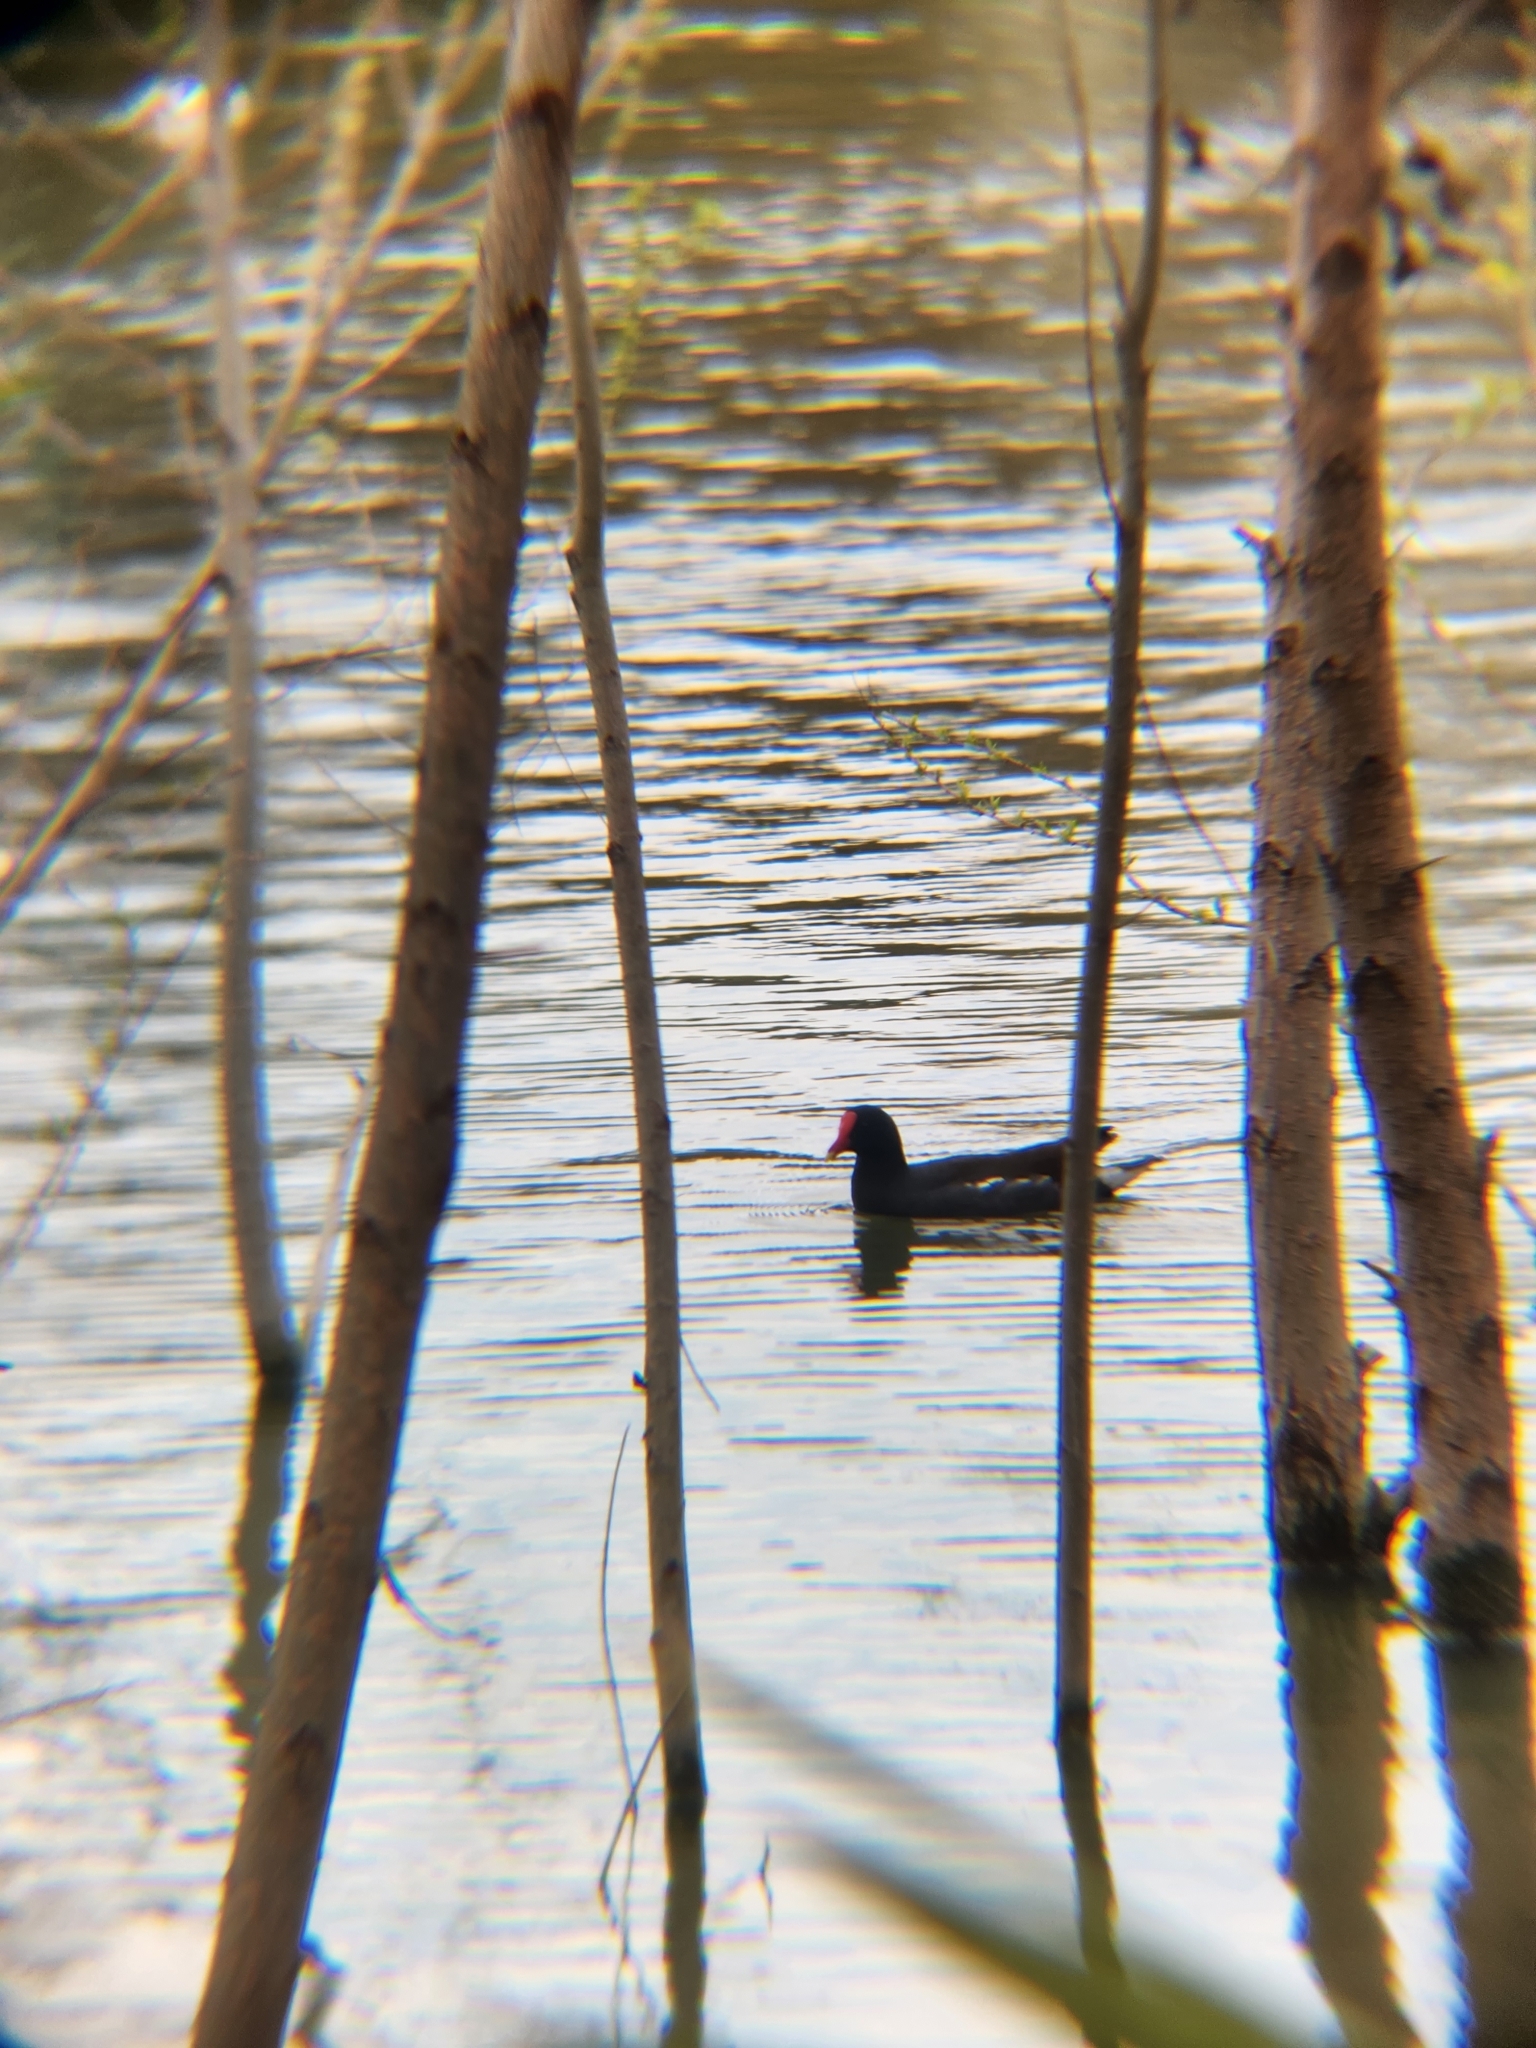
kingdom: Animalia
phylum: Chordata
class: Aves
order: Gruiformes
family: Rallidae
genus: Gallinula
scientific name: Gallinula chloropus
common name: Common moorhen
